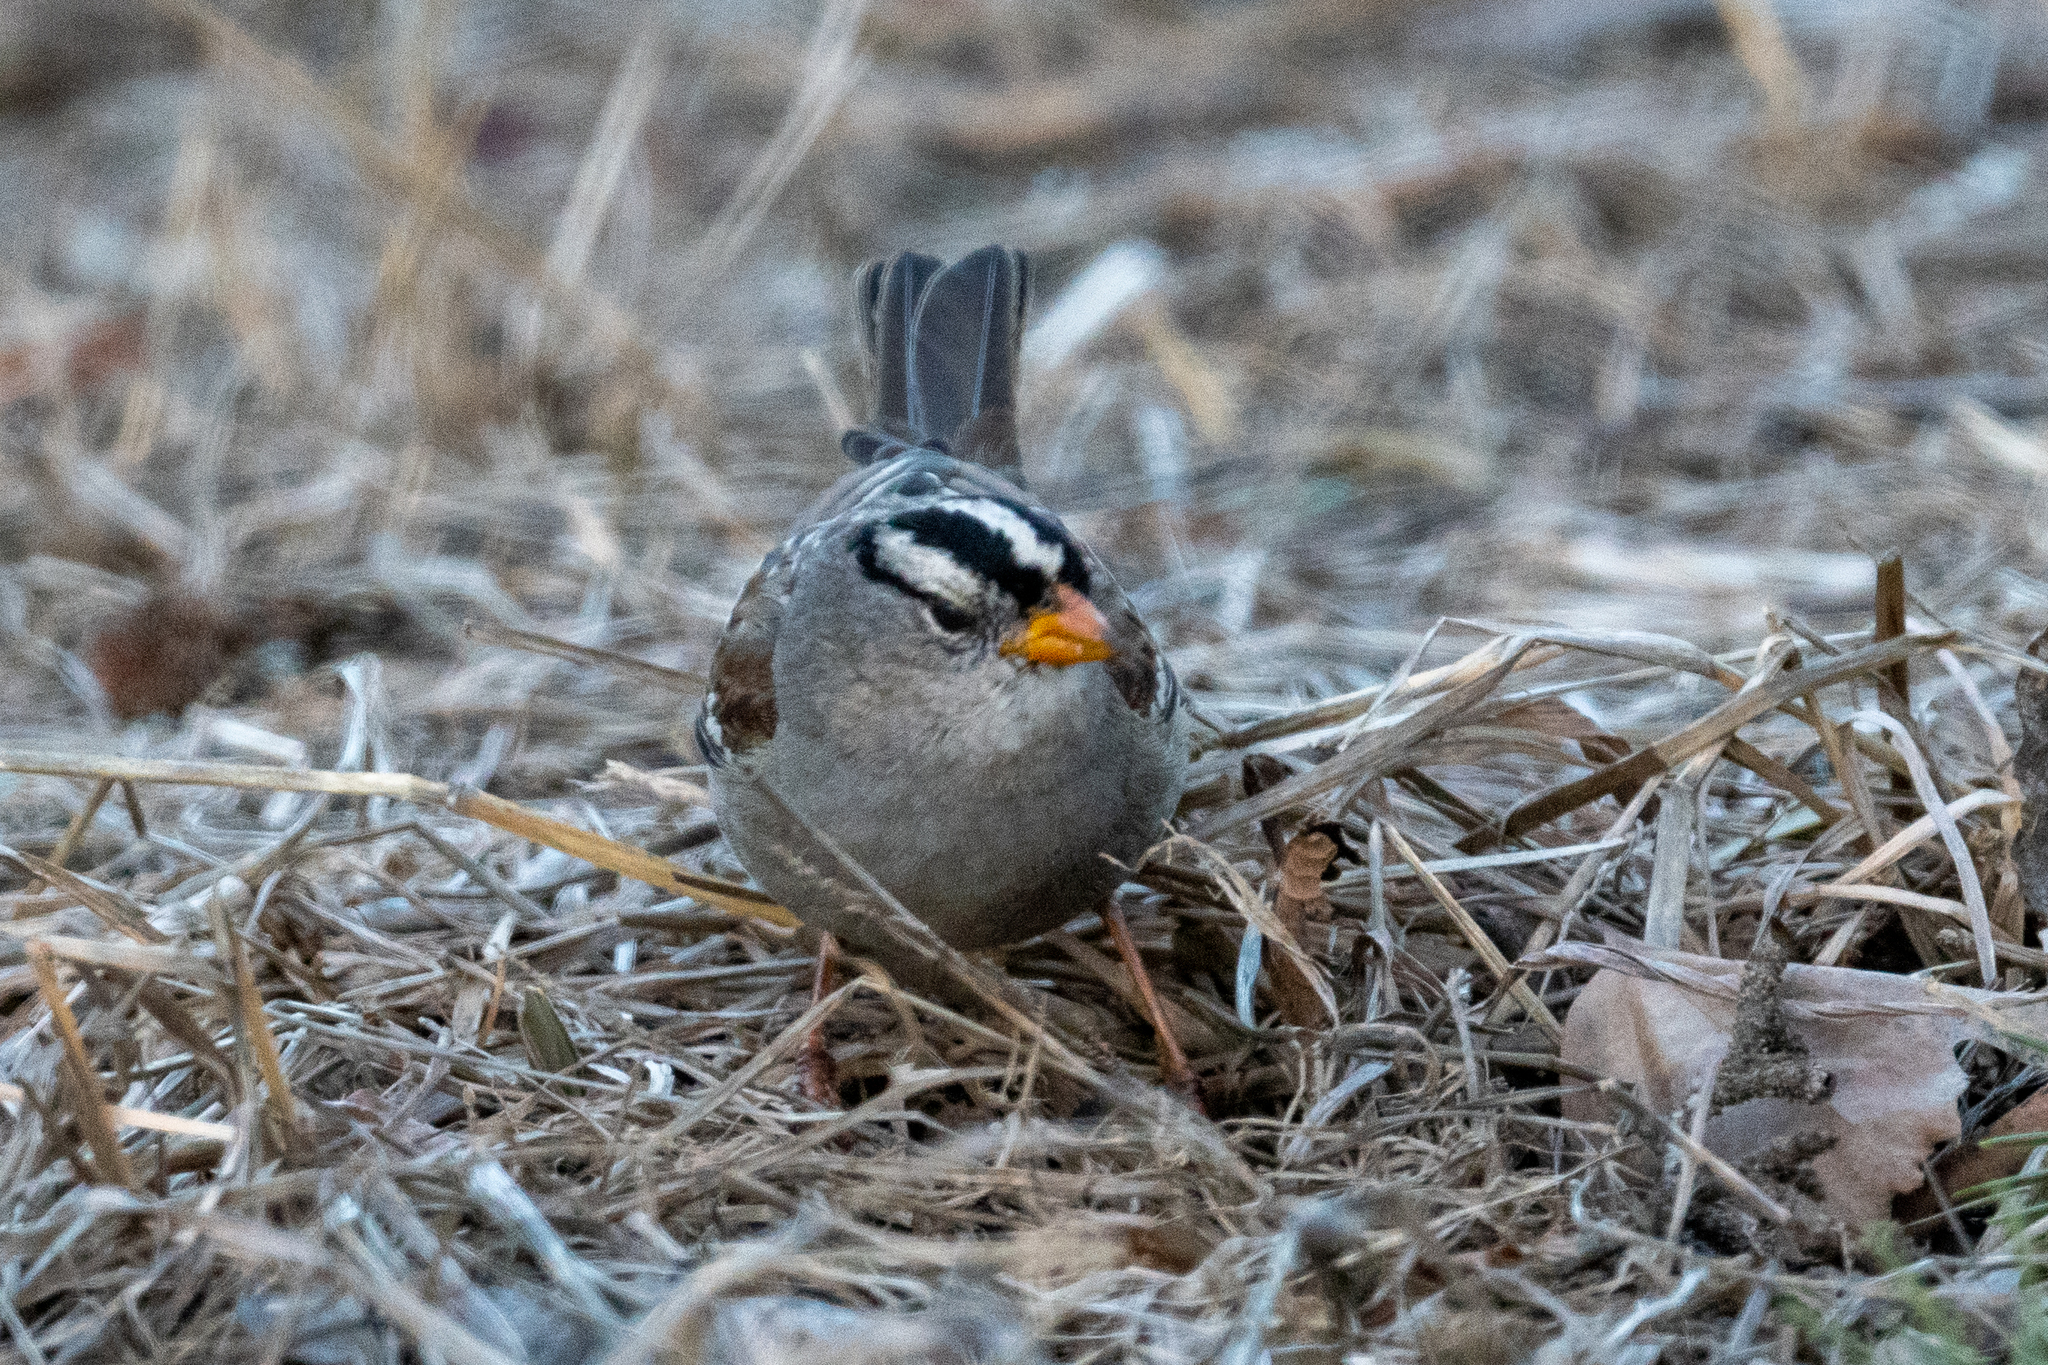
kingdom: Animalia
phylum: Chordata
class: Aves
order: Passeriformes
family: Passerellidae
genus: Zonotrichia
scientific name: Zonotrichia leucophrys
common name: White-crowned sparrow
